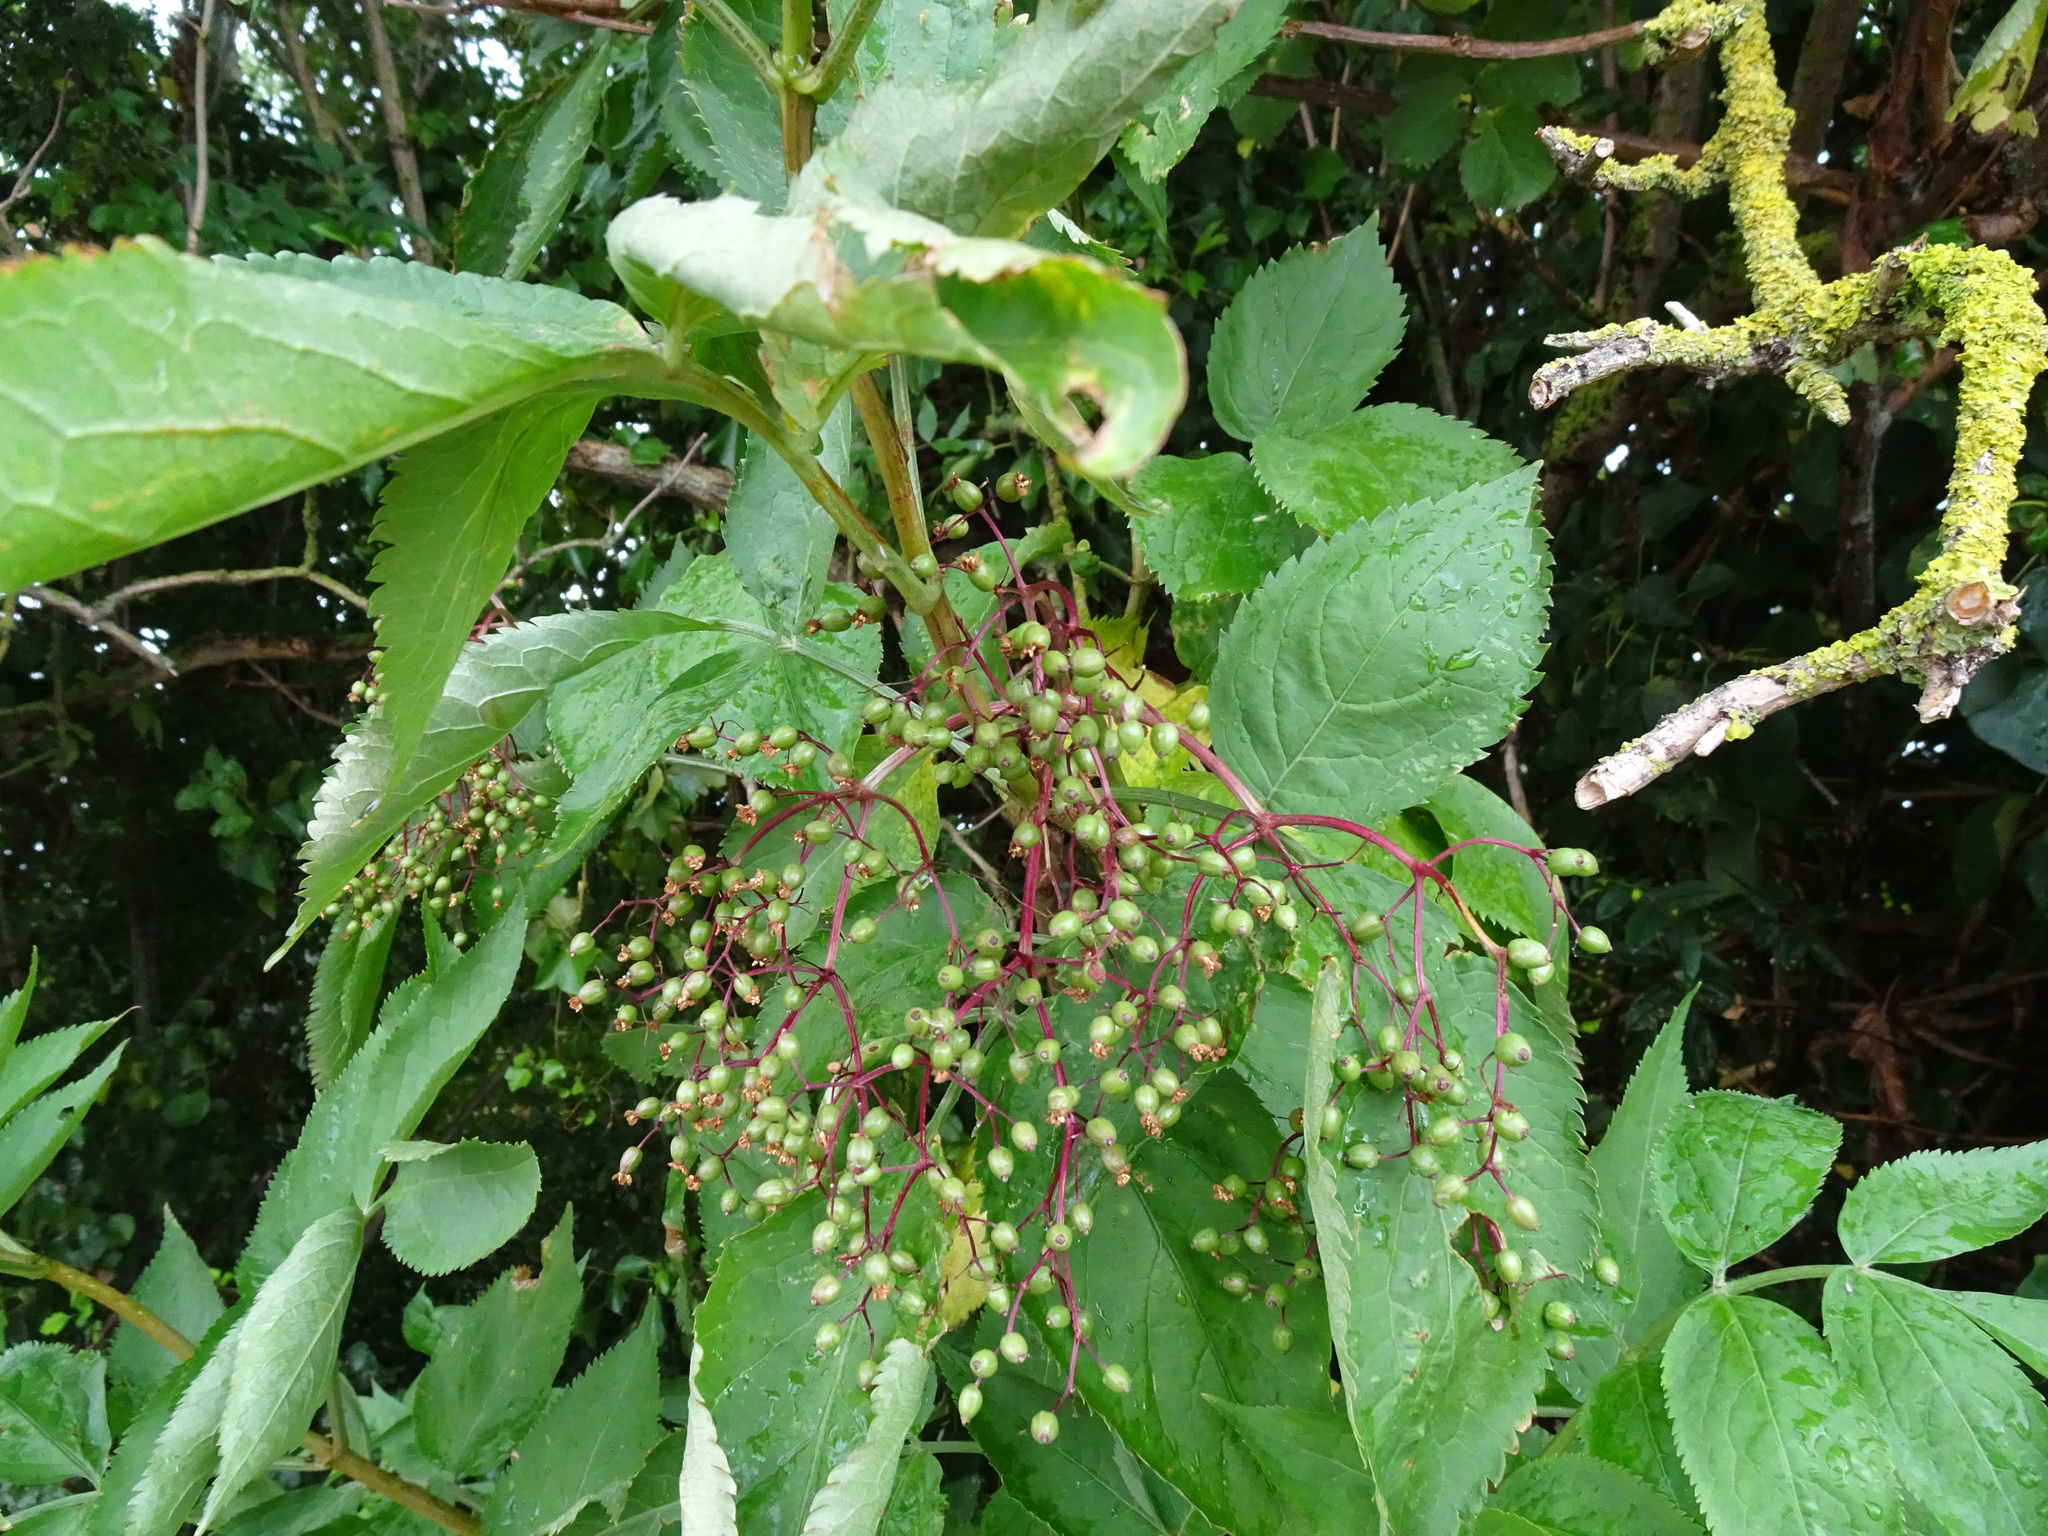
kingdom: Plantae
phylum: Tracheophyta
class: Magnoliopsida
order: Dipsacales
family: Viburnaceae
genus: Sambucus
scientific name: Sambucus nigra
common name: Elder
